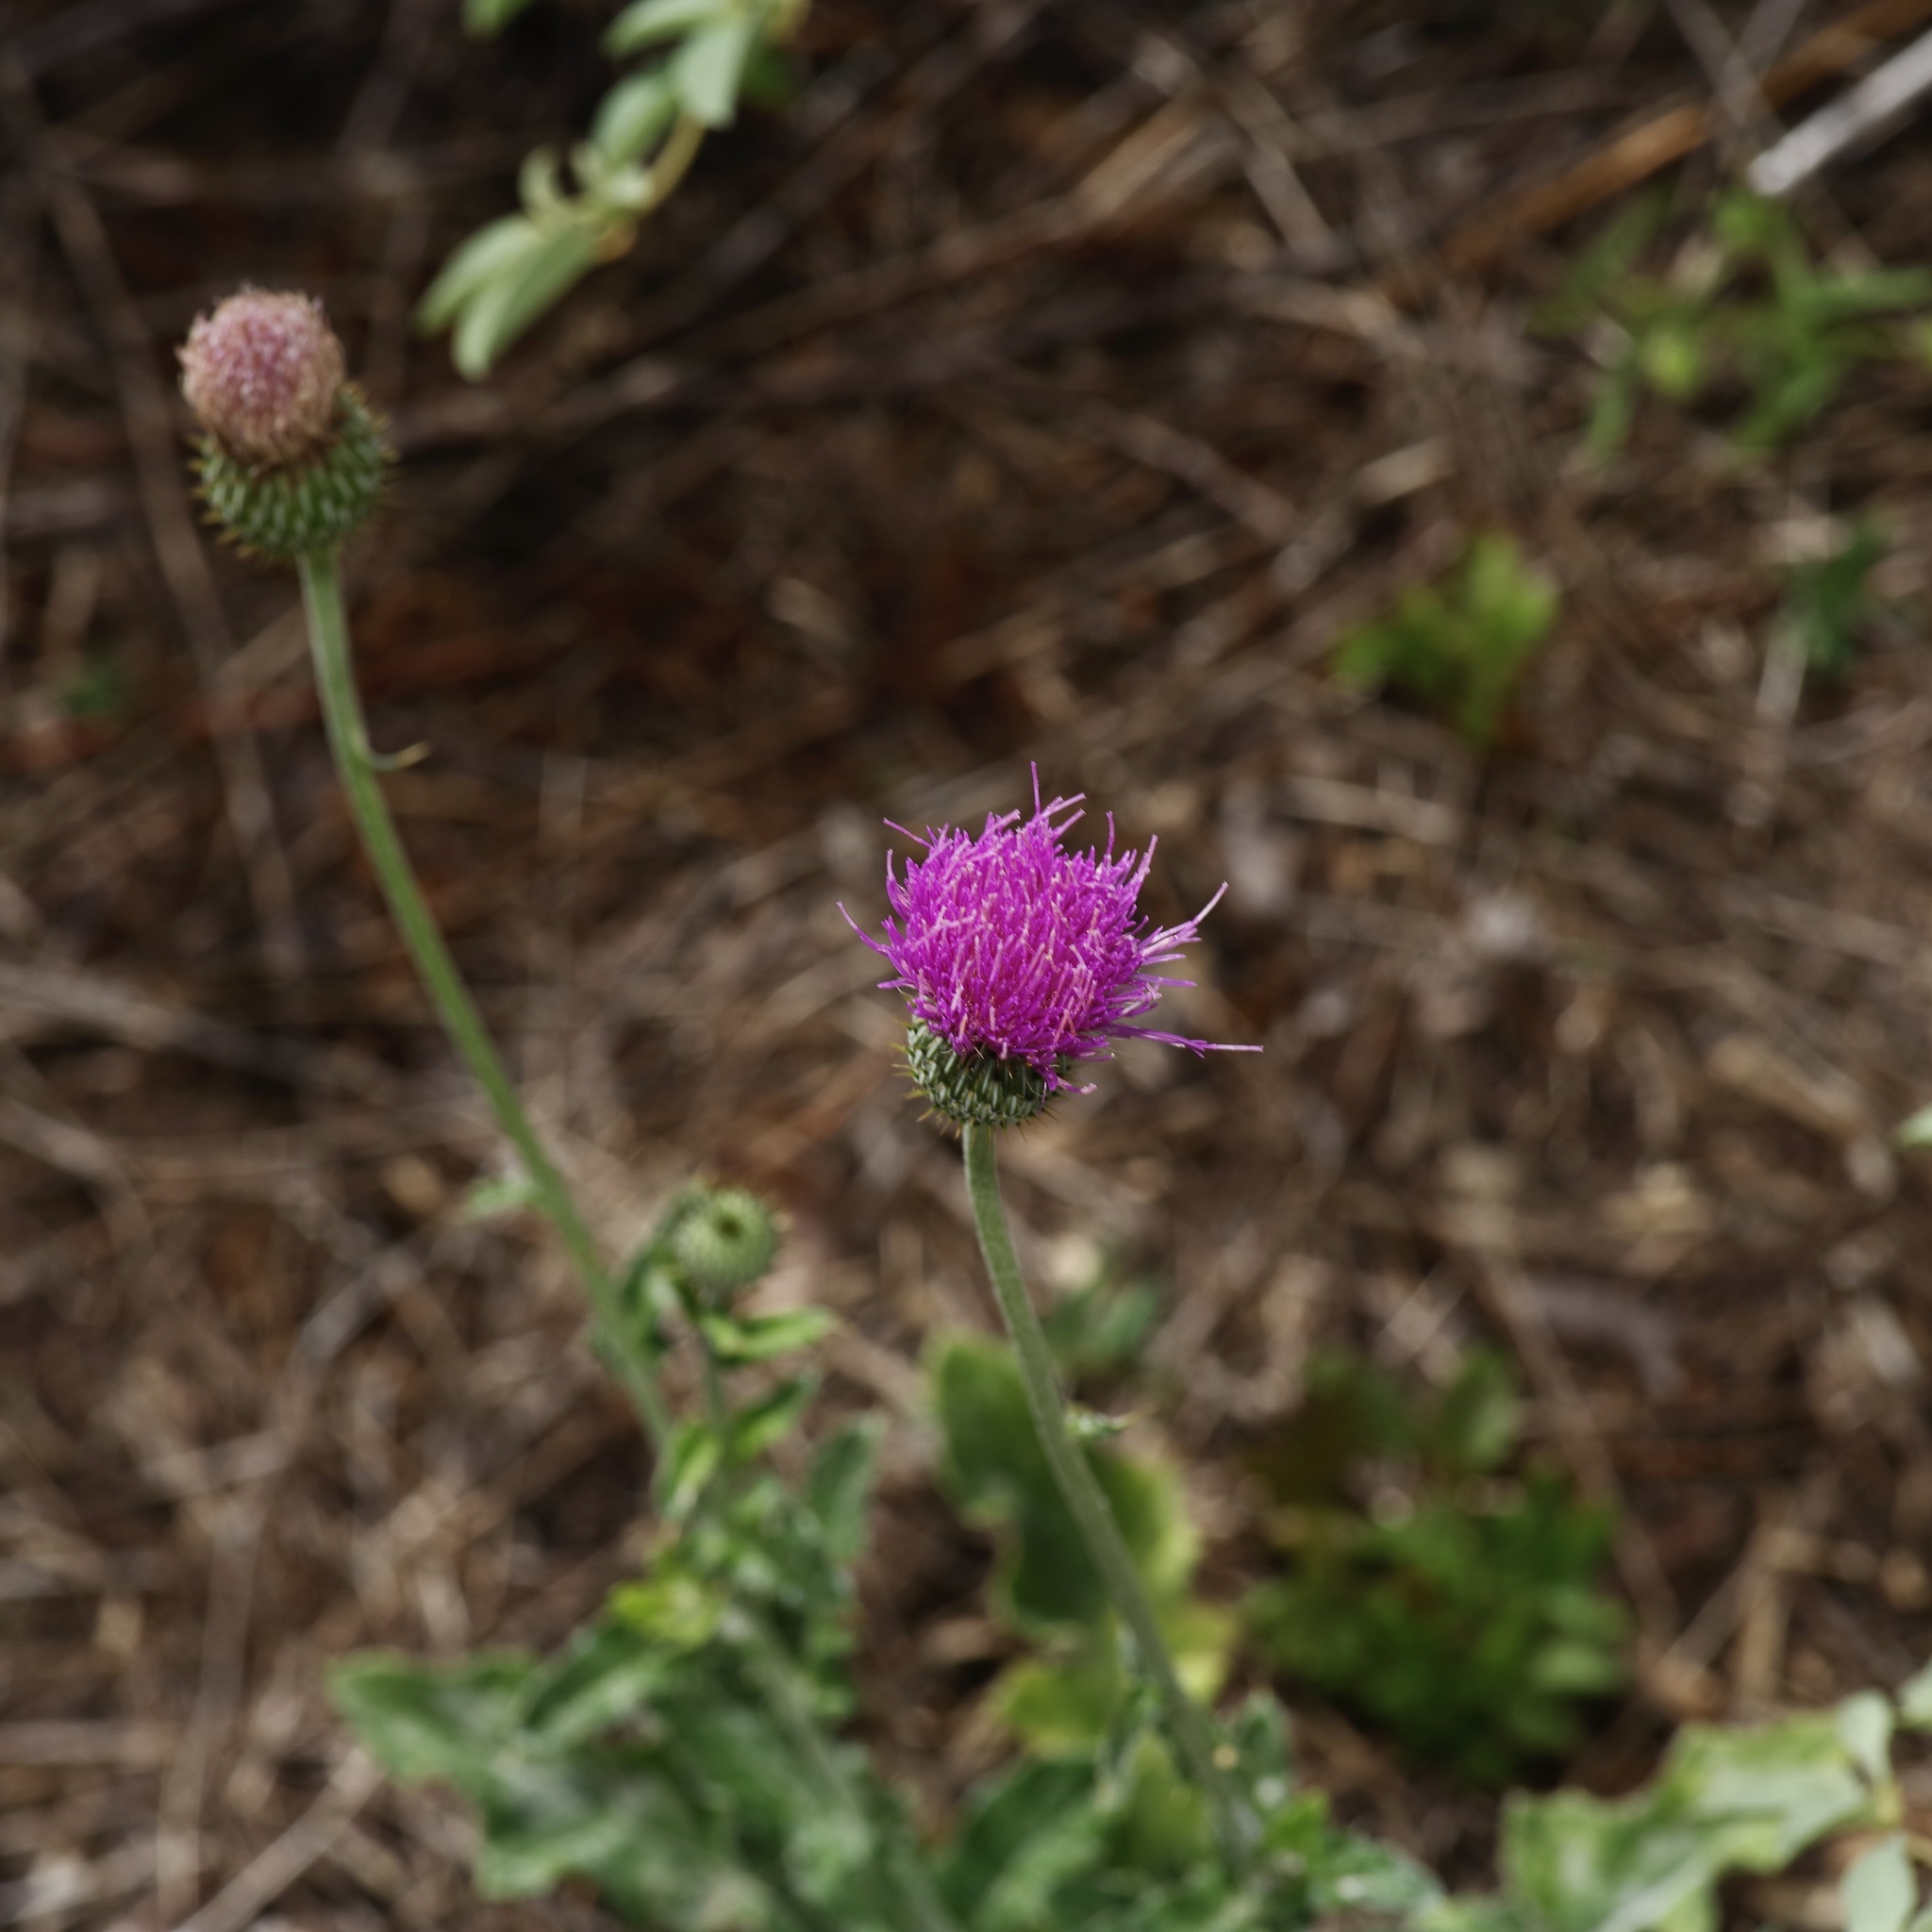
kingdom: Plantae
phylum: Tracheophyta
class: Magnoliopsida
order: Asterales
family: Asteraceae
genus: Cirsium
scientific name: Cirsium texanum
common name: Texas purple thistle
